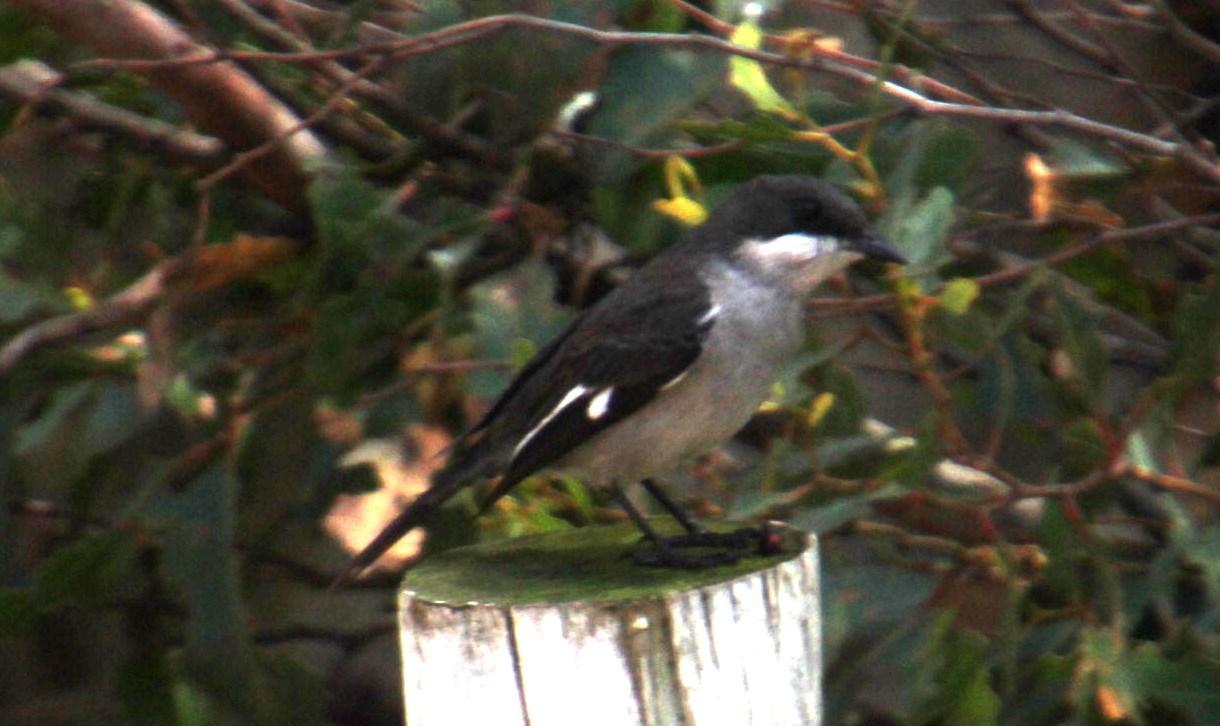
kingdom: Animalia
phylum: Chordata
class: Aves
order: Passeriformes
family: Muscicapidae
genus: Sigelus
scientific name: Sigelus silens
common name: Fiscal flycatcher
